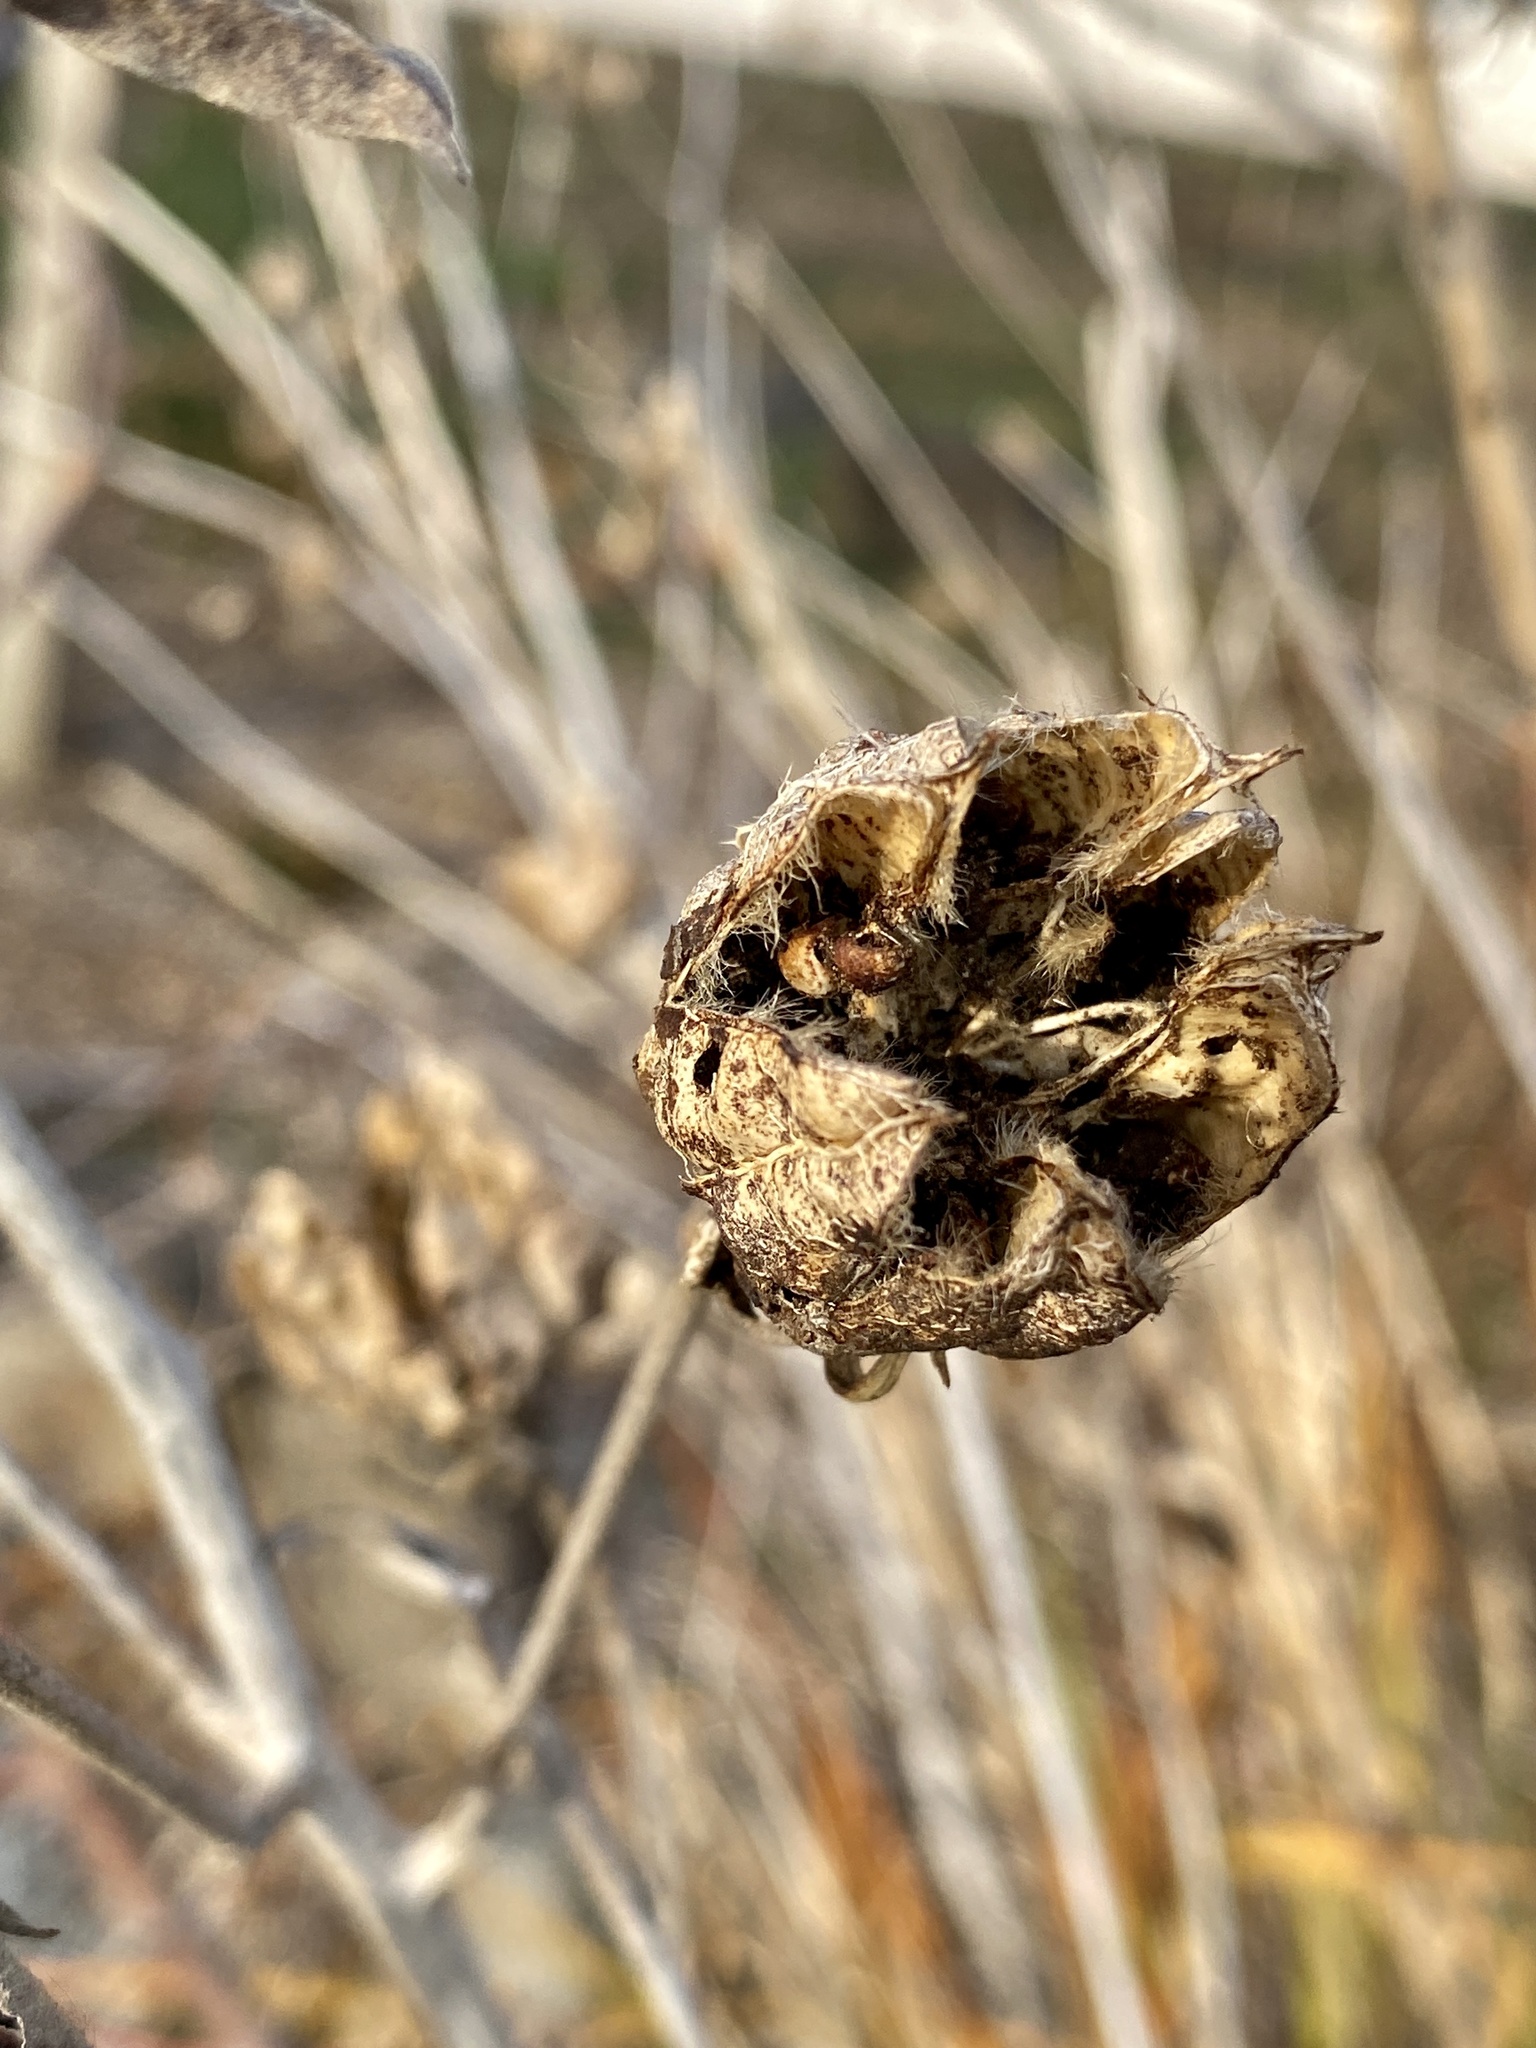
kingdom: Plantae
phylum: Tracheophyta
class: Magnoliopsida
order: Malvales
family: Malvaceae
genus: Hibiscus
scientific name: Hibiscus moscheutos
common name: Common rose-mallow
